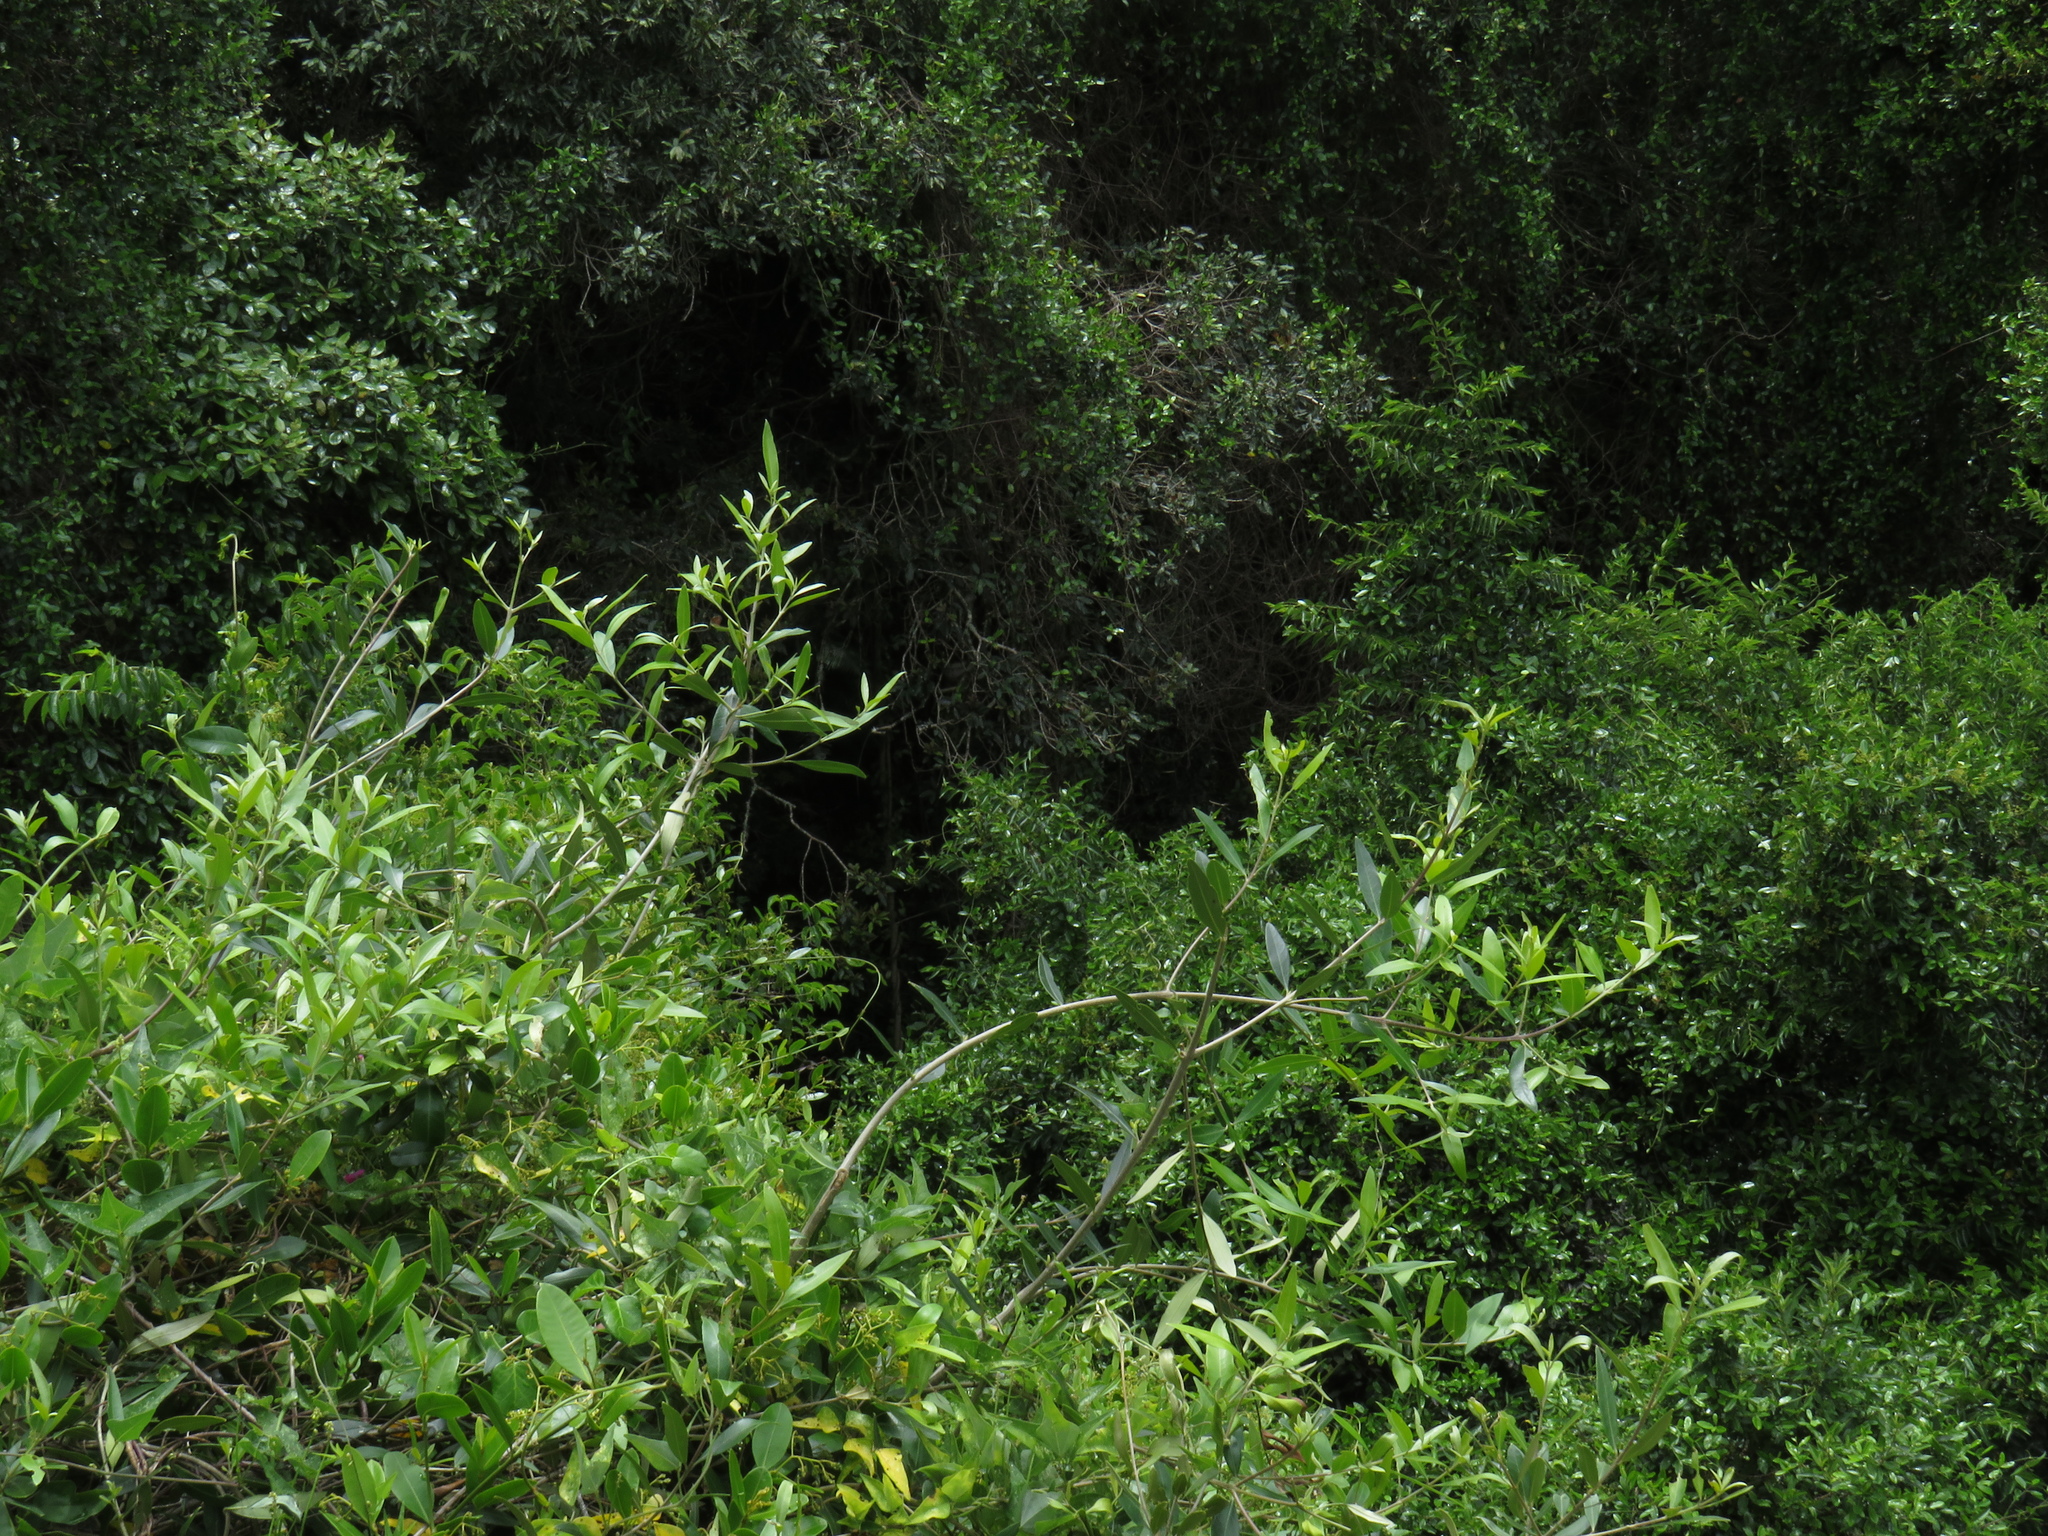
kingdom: Plantae
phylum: Tracheophyta
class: Magnoliopsida
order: Lamiales
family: Oleaceae
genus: Olea
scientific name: Olea europaea
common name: Olive
